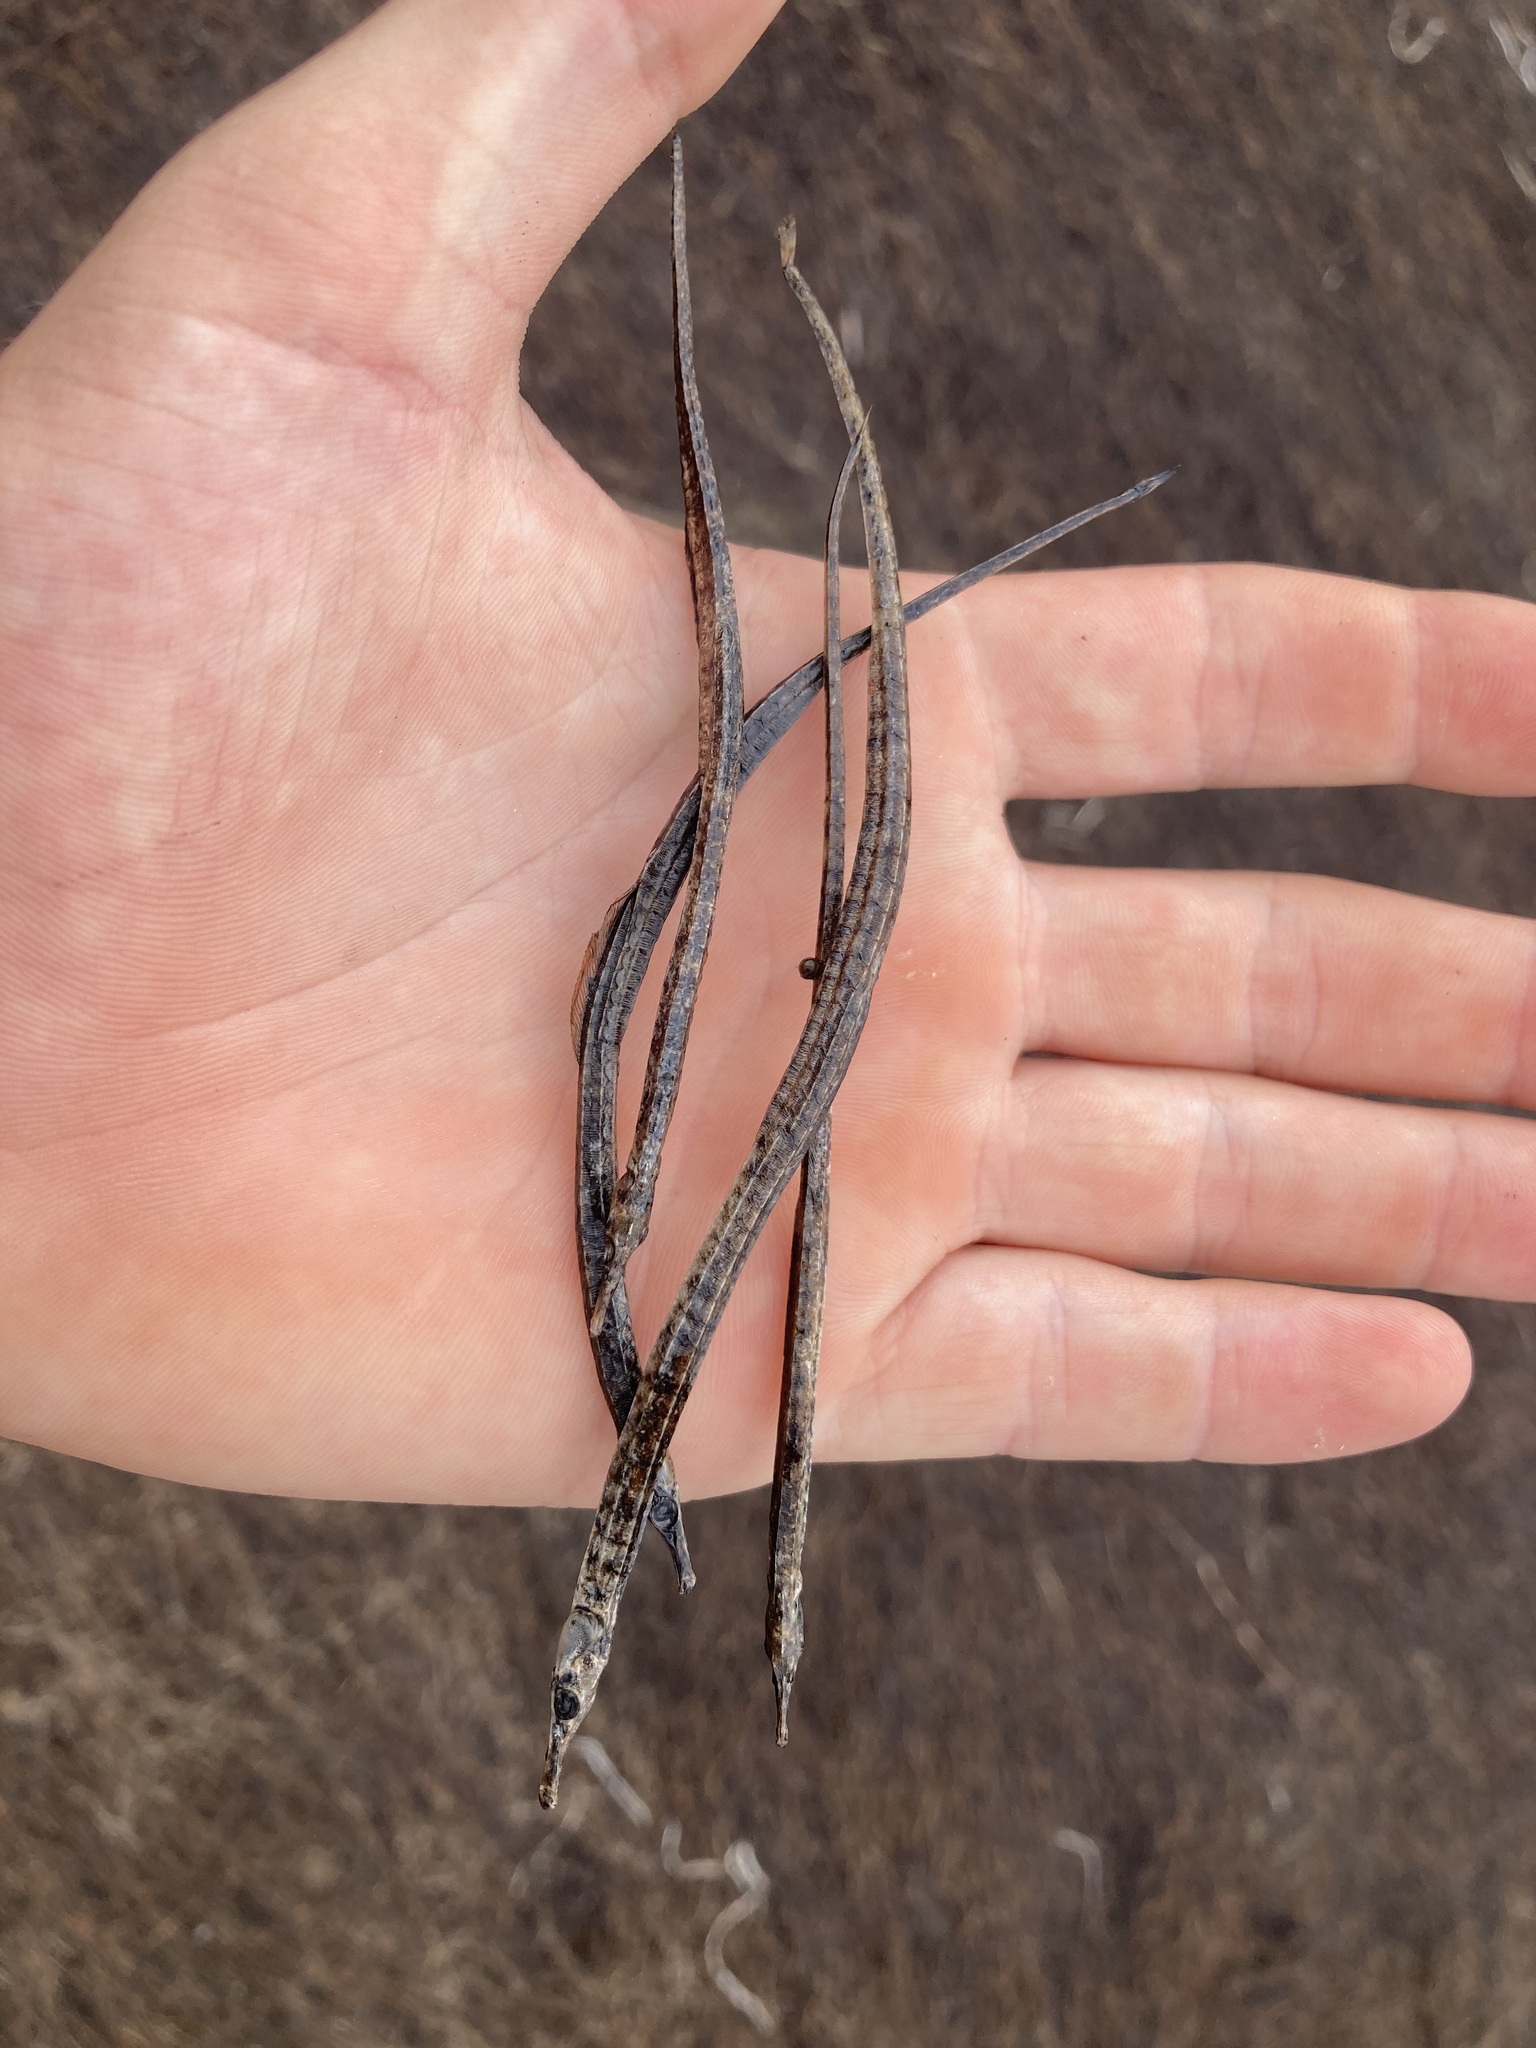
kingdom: Animalia
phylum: Chordata
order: Syngnathiformes
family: Syngnathidae
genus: Syngnathus
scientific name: Syngnathus acus
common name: Greater pipefish
